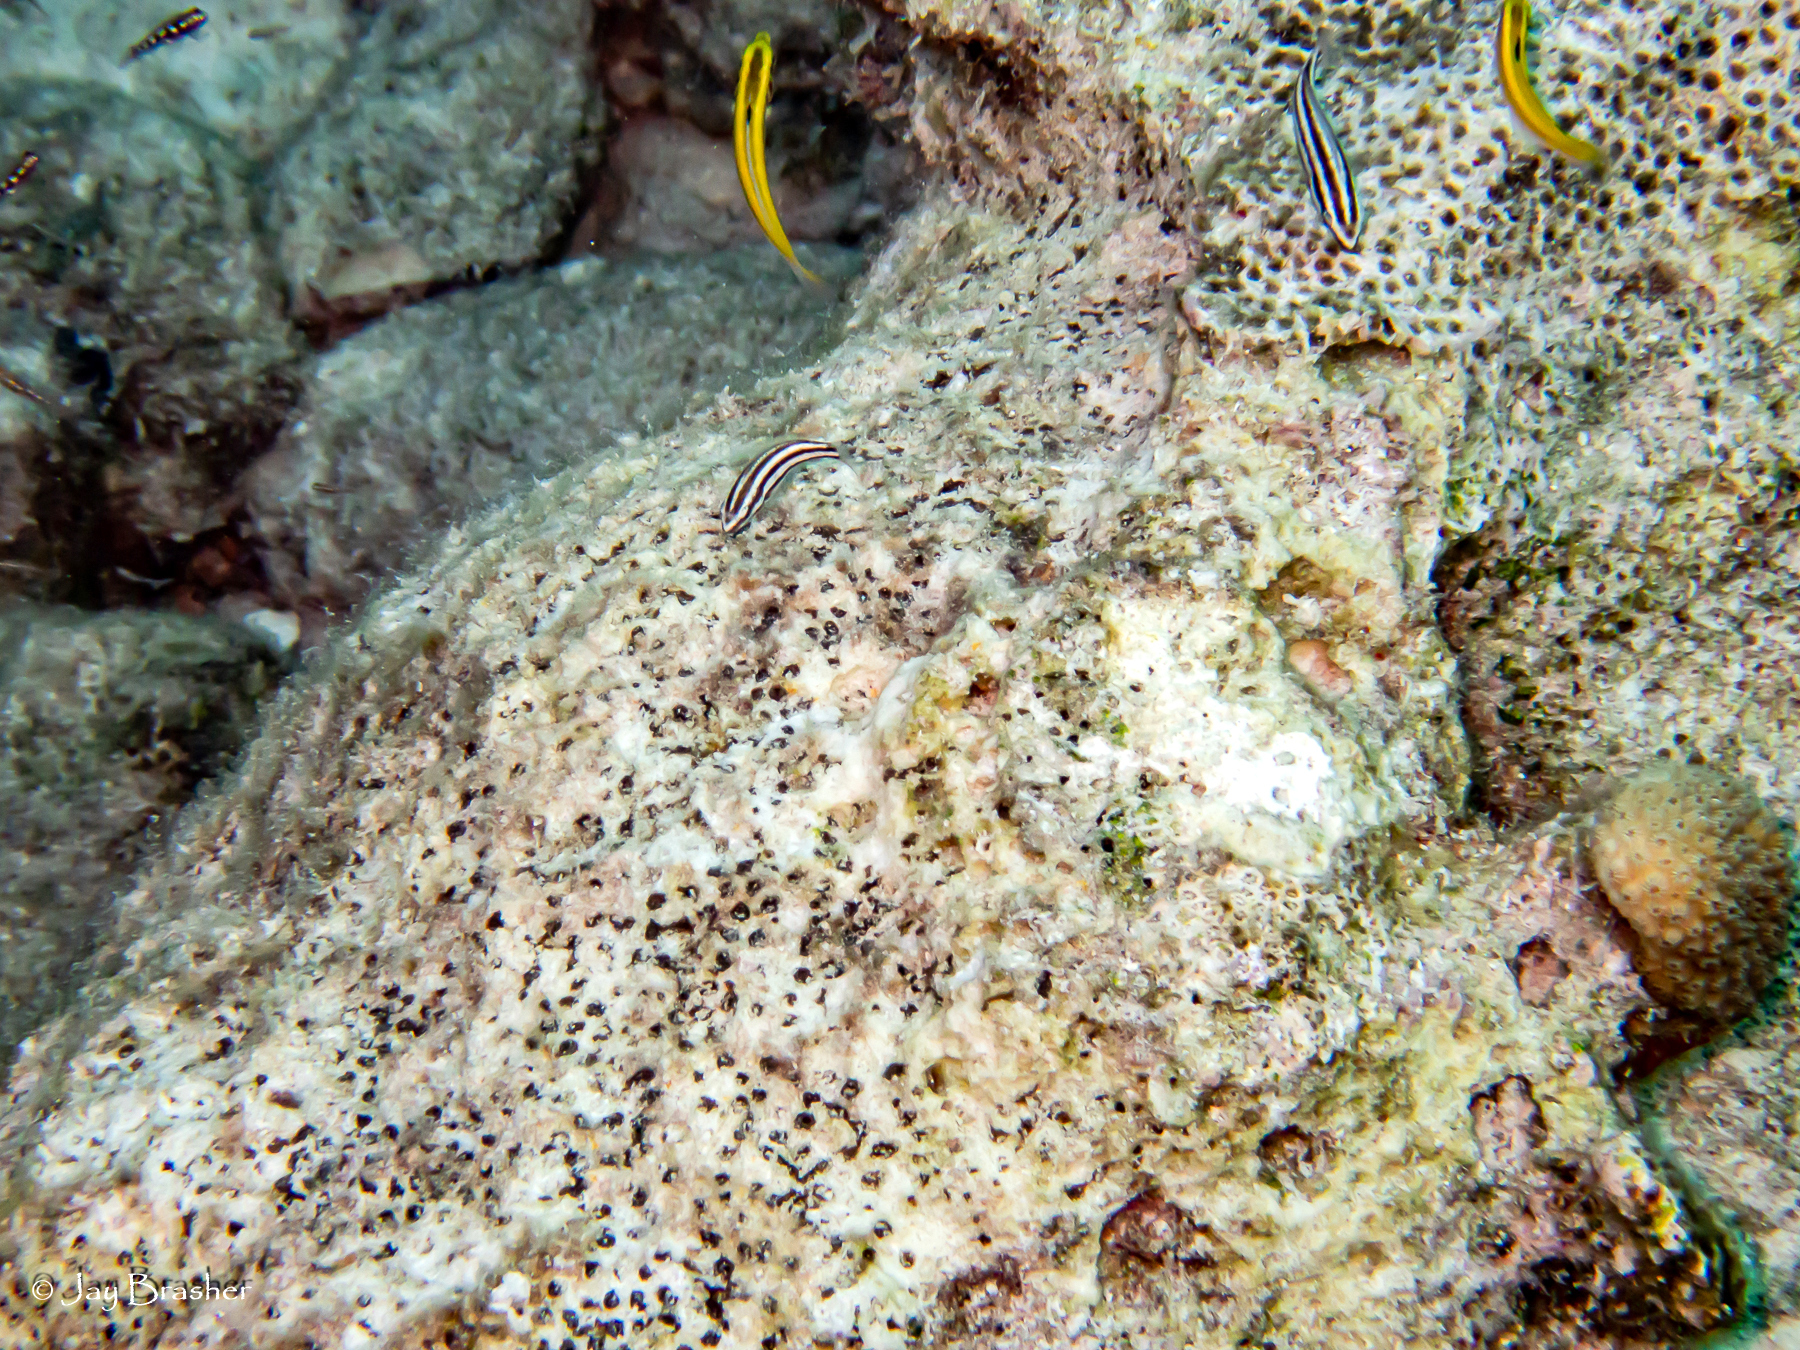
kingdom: Animalia
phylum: Porifera
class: Demospongiae
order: Clionaida
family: Clionaidae
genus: Cliona
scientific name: Cliona aprica
